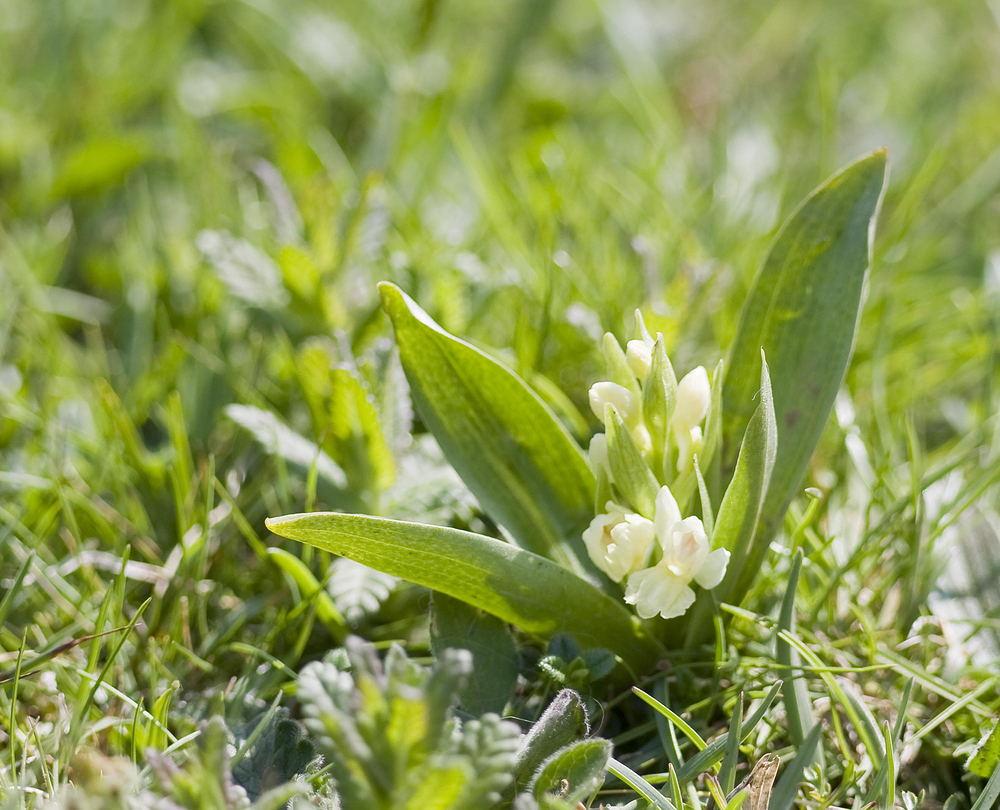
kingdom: Plantae
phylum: Tracheophyta
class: Liliopsida
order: Asparagales
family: Orchidaceae
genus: Dactylorhiza
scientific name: Dactylorhiza insularis
